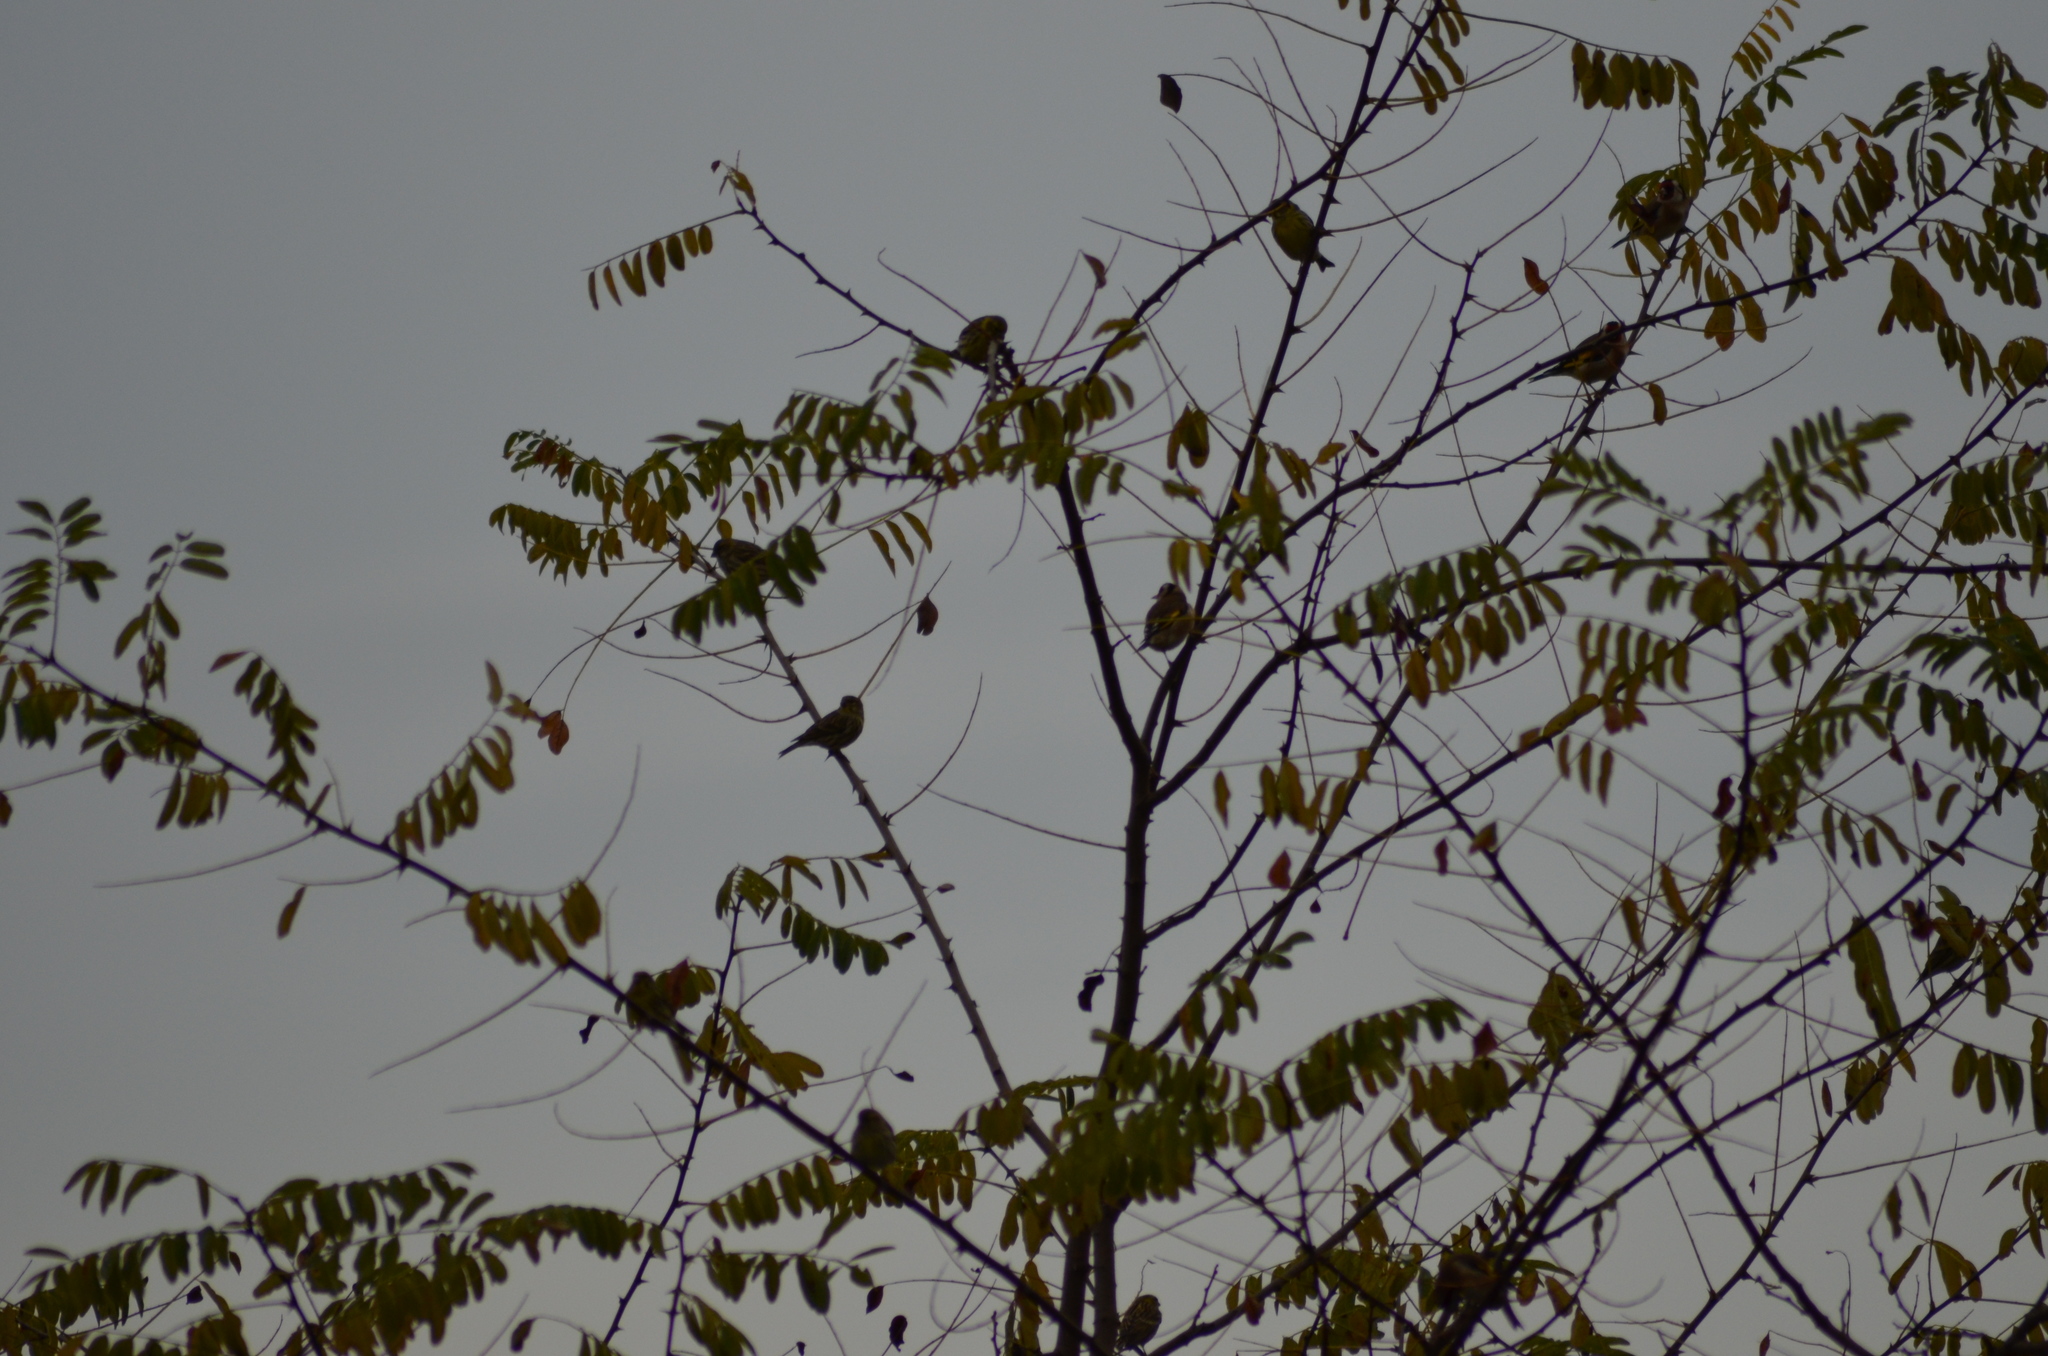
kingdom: Animalia
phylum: Chordata
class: Aves
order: Passeriformes
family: Fringillidae
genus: Serinus
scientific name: Serinus serinus
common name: European serin
